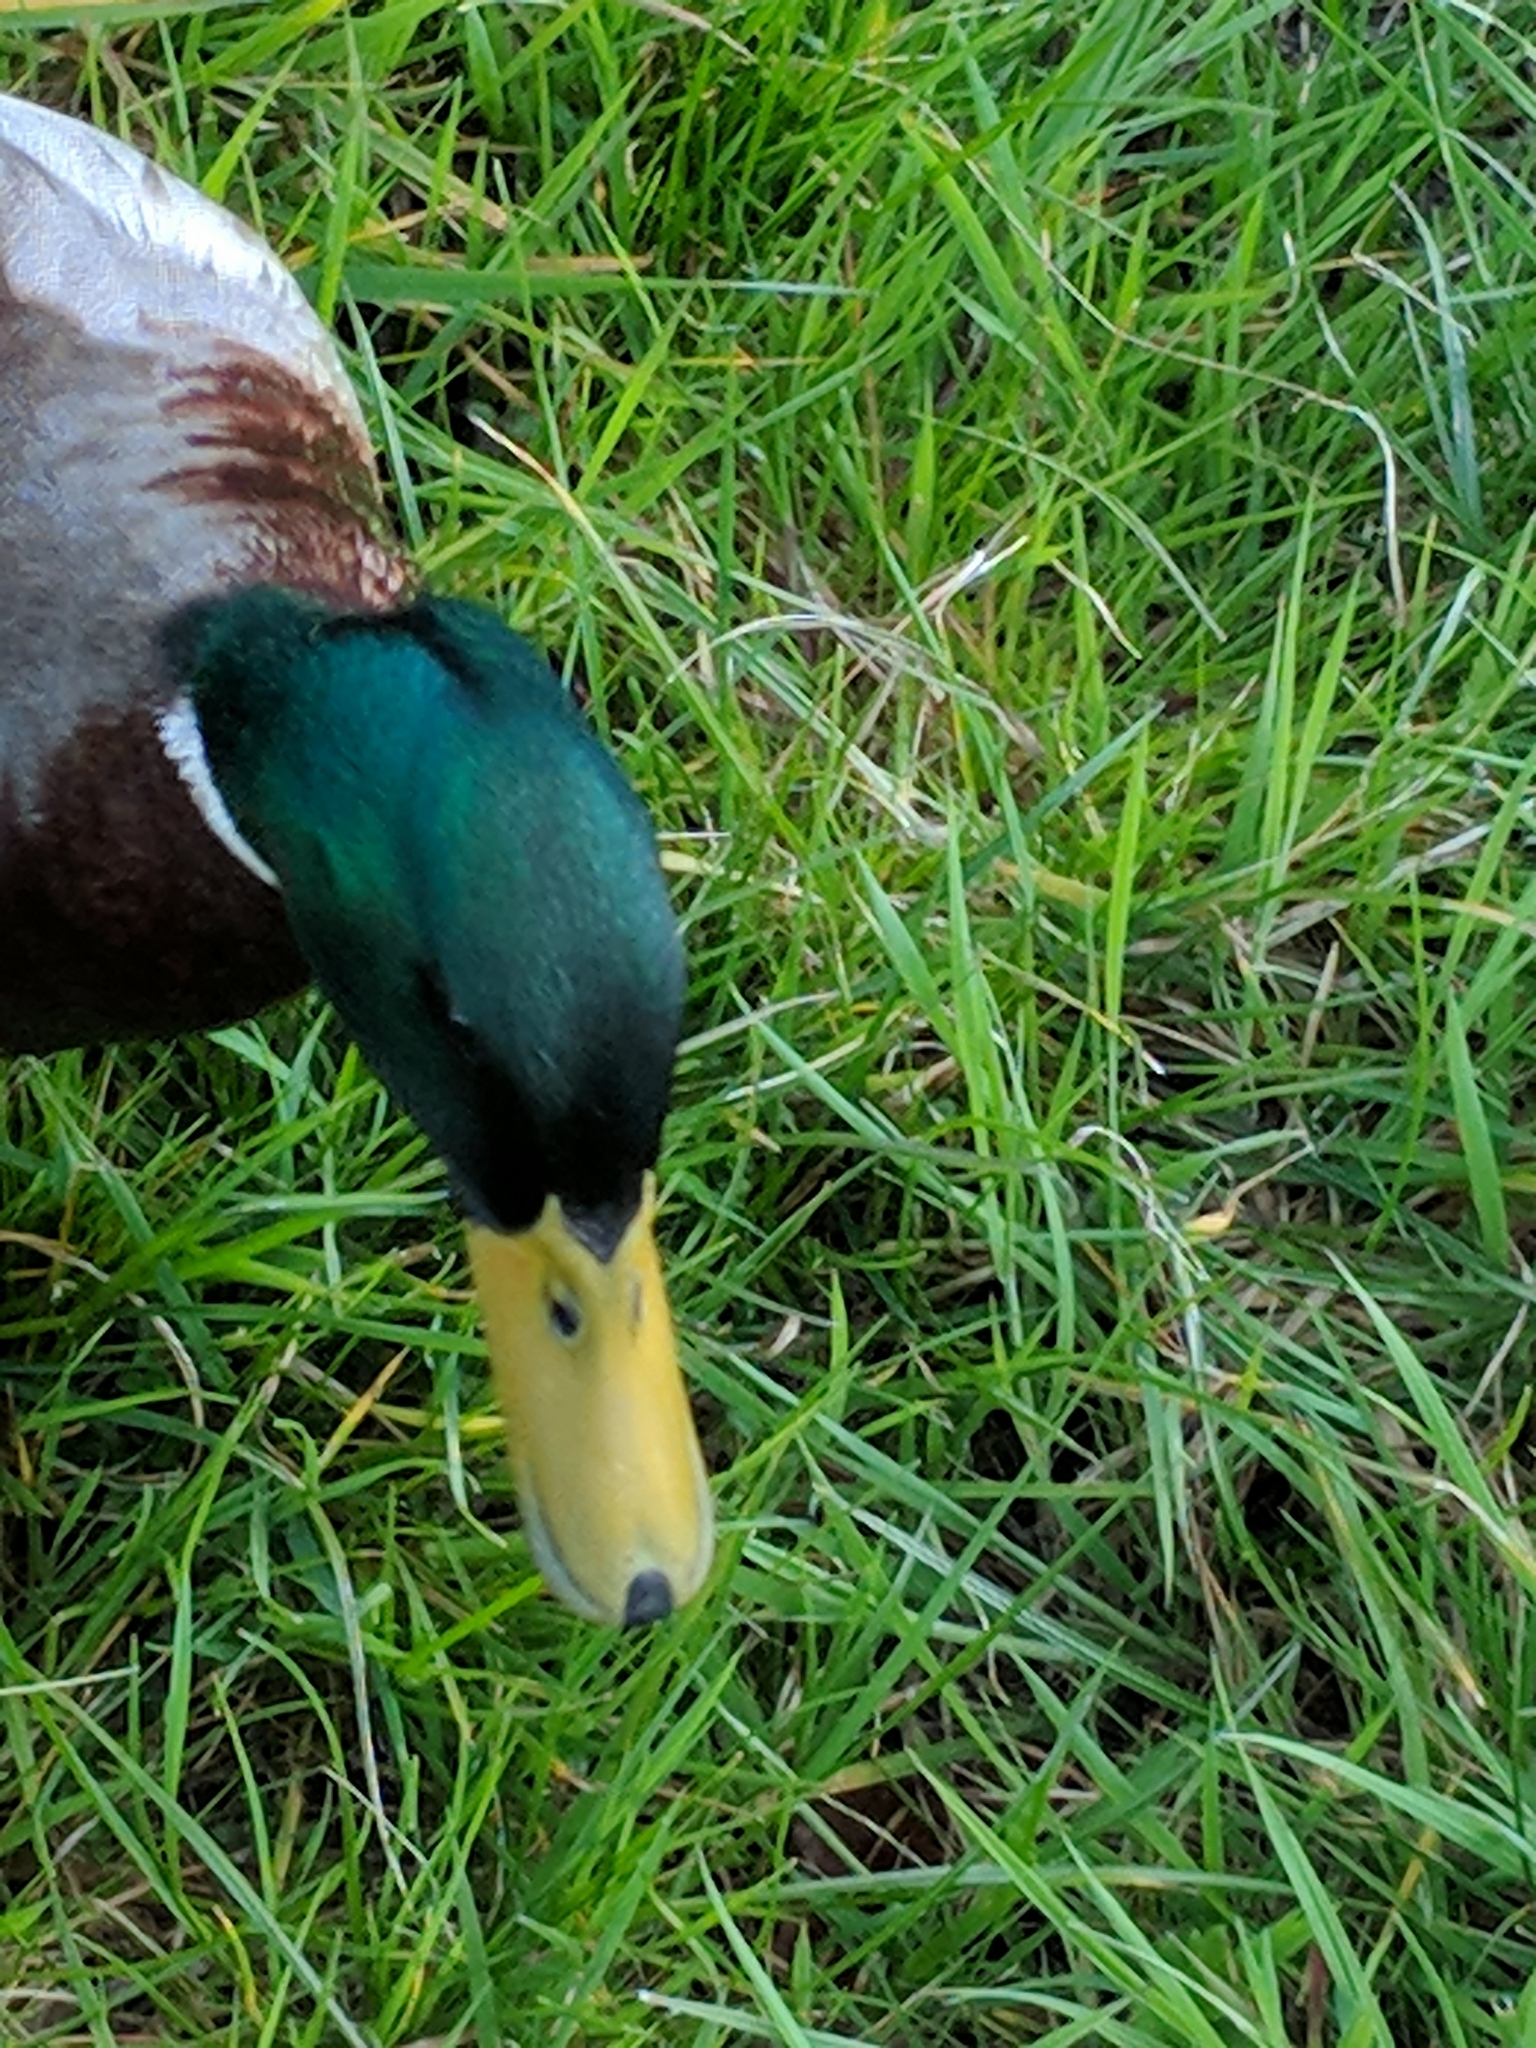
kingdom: Animalia
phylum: Chordata
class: Aves
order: Anseriformes
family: Anatidae
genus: Anas
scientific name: Anas platyrhynchos
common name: Mallard
